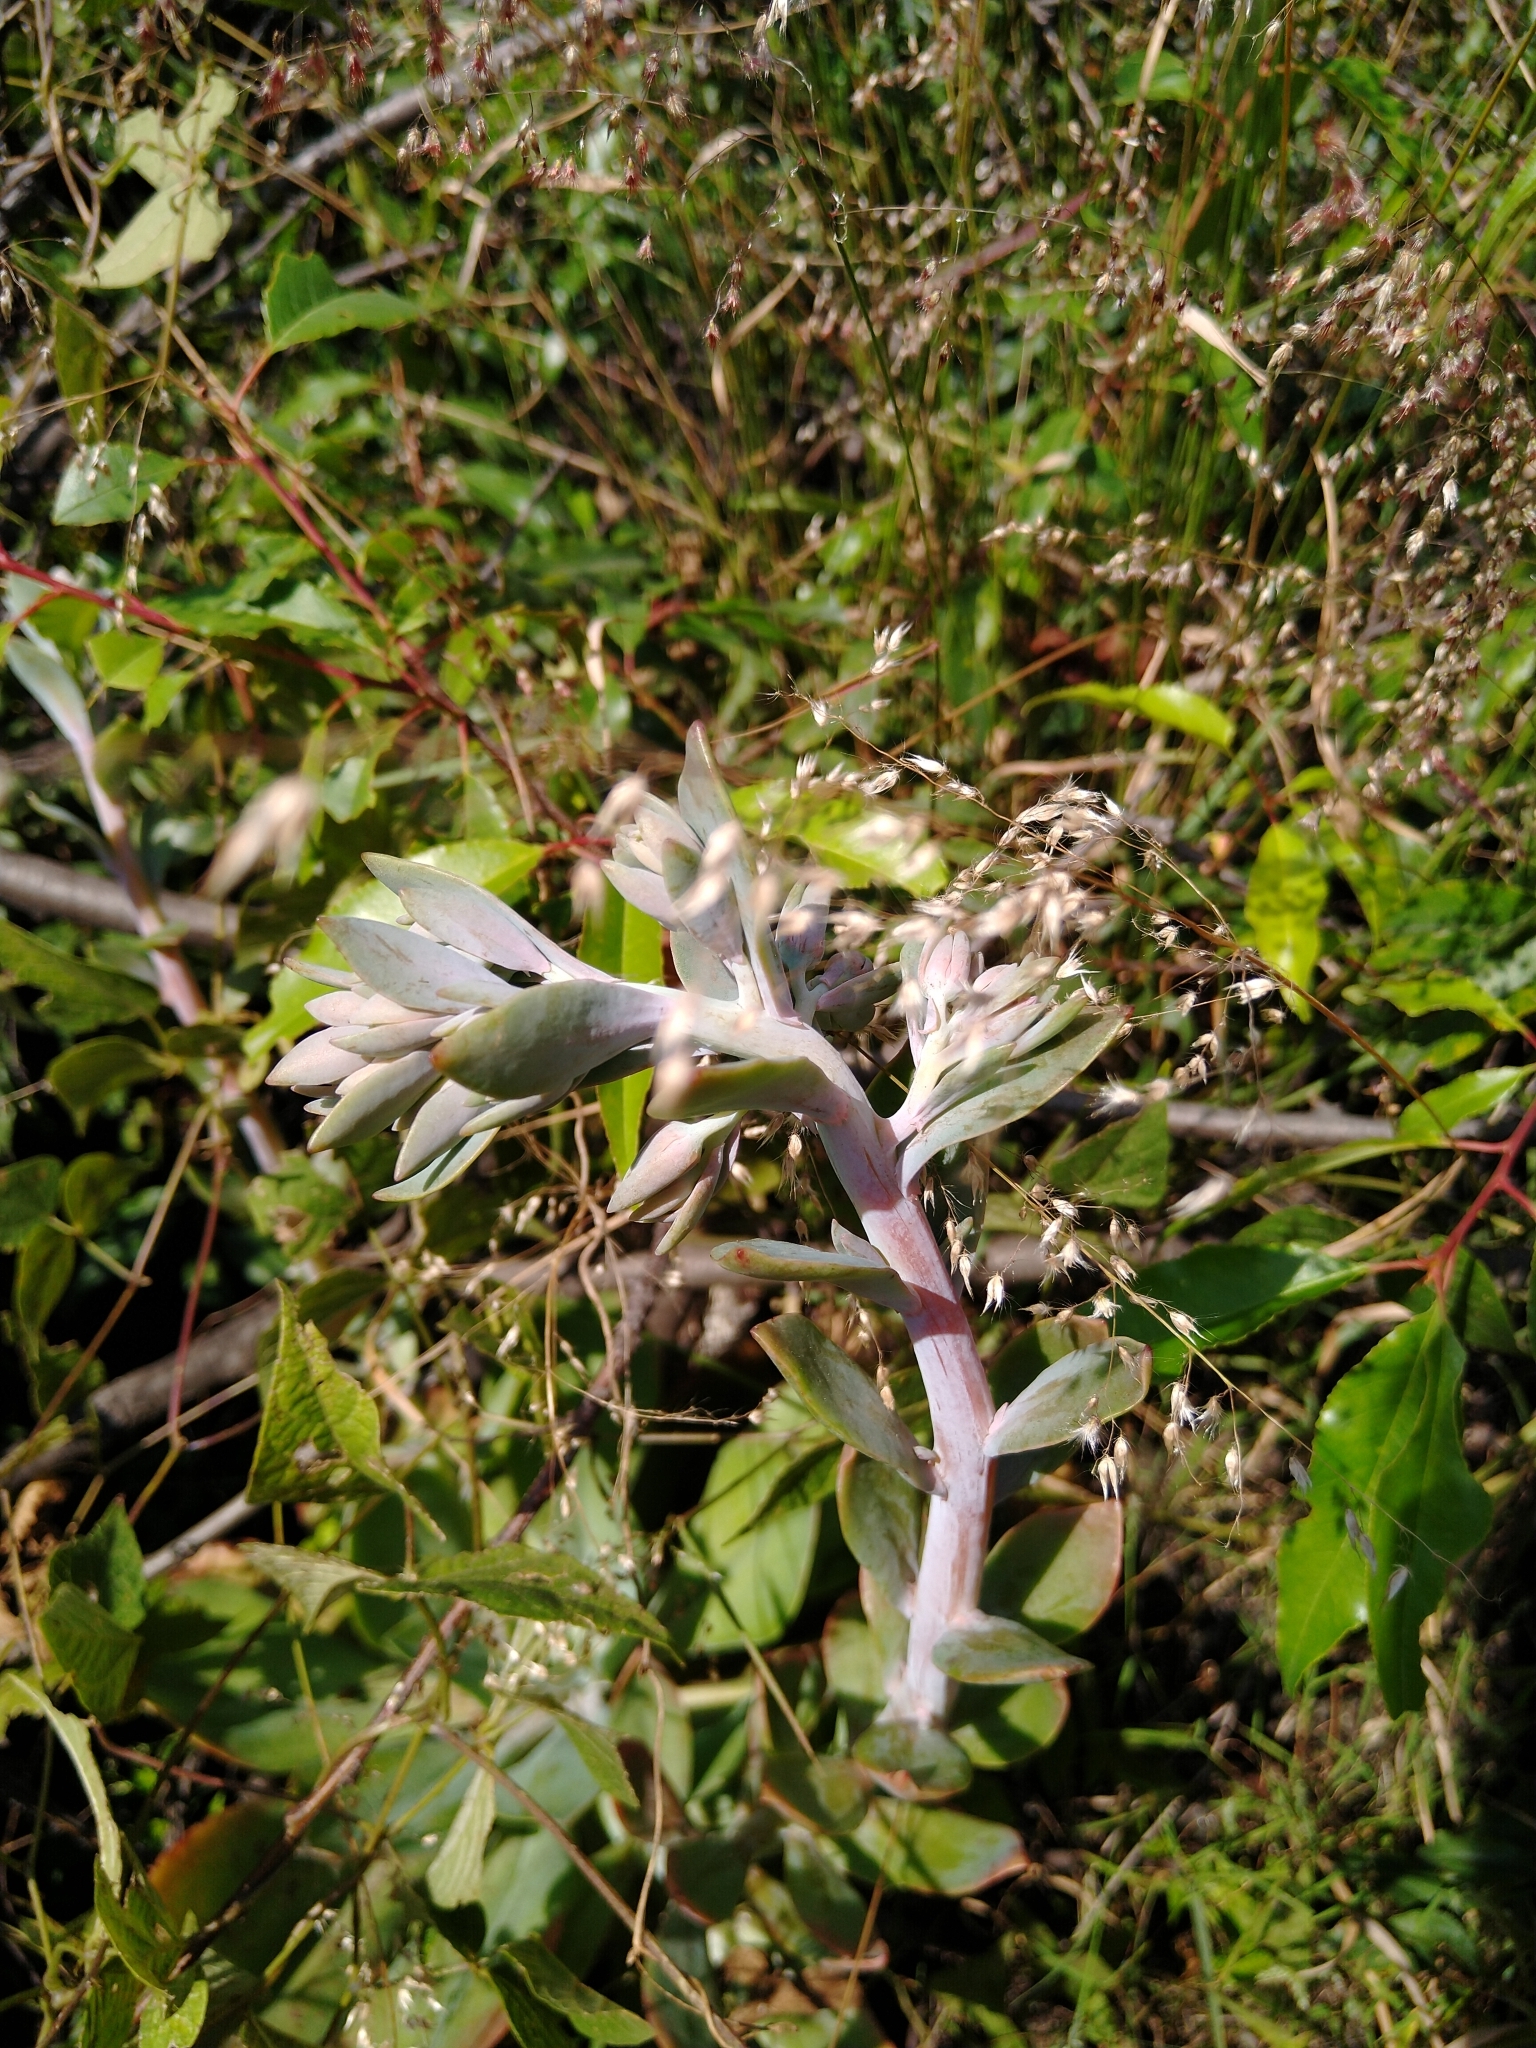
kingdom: Plantae
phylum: Tracheophyta
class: Magnoliopsida
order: Saxifragales
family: Crassulaceae
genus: Echeveria
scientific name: Echeveria gibbiflora
